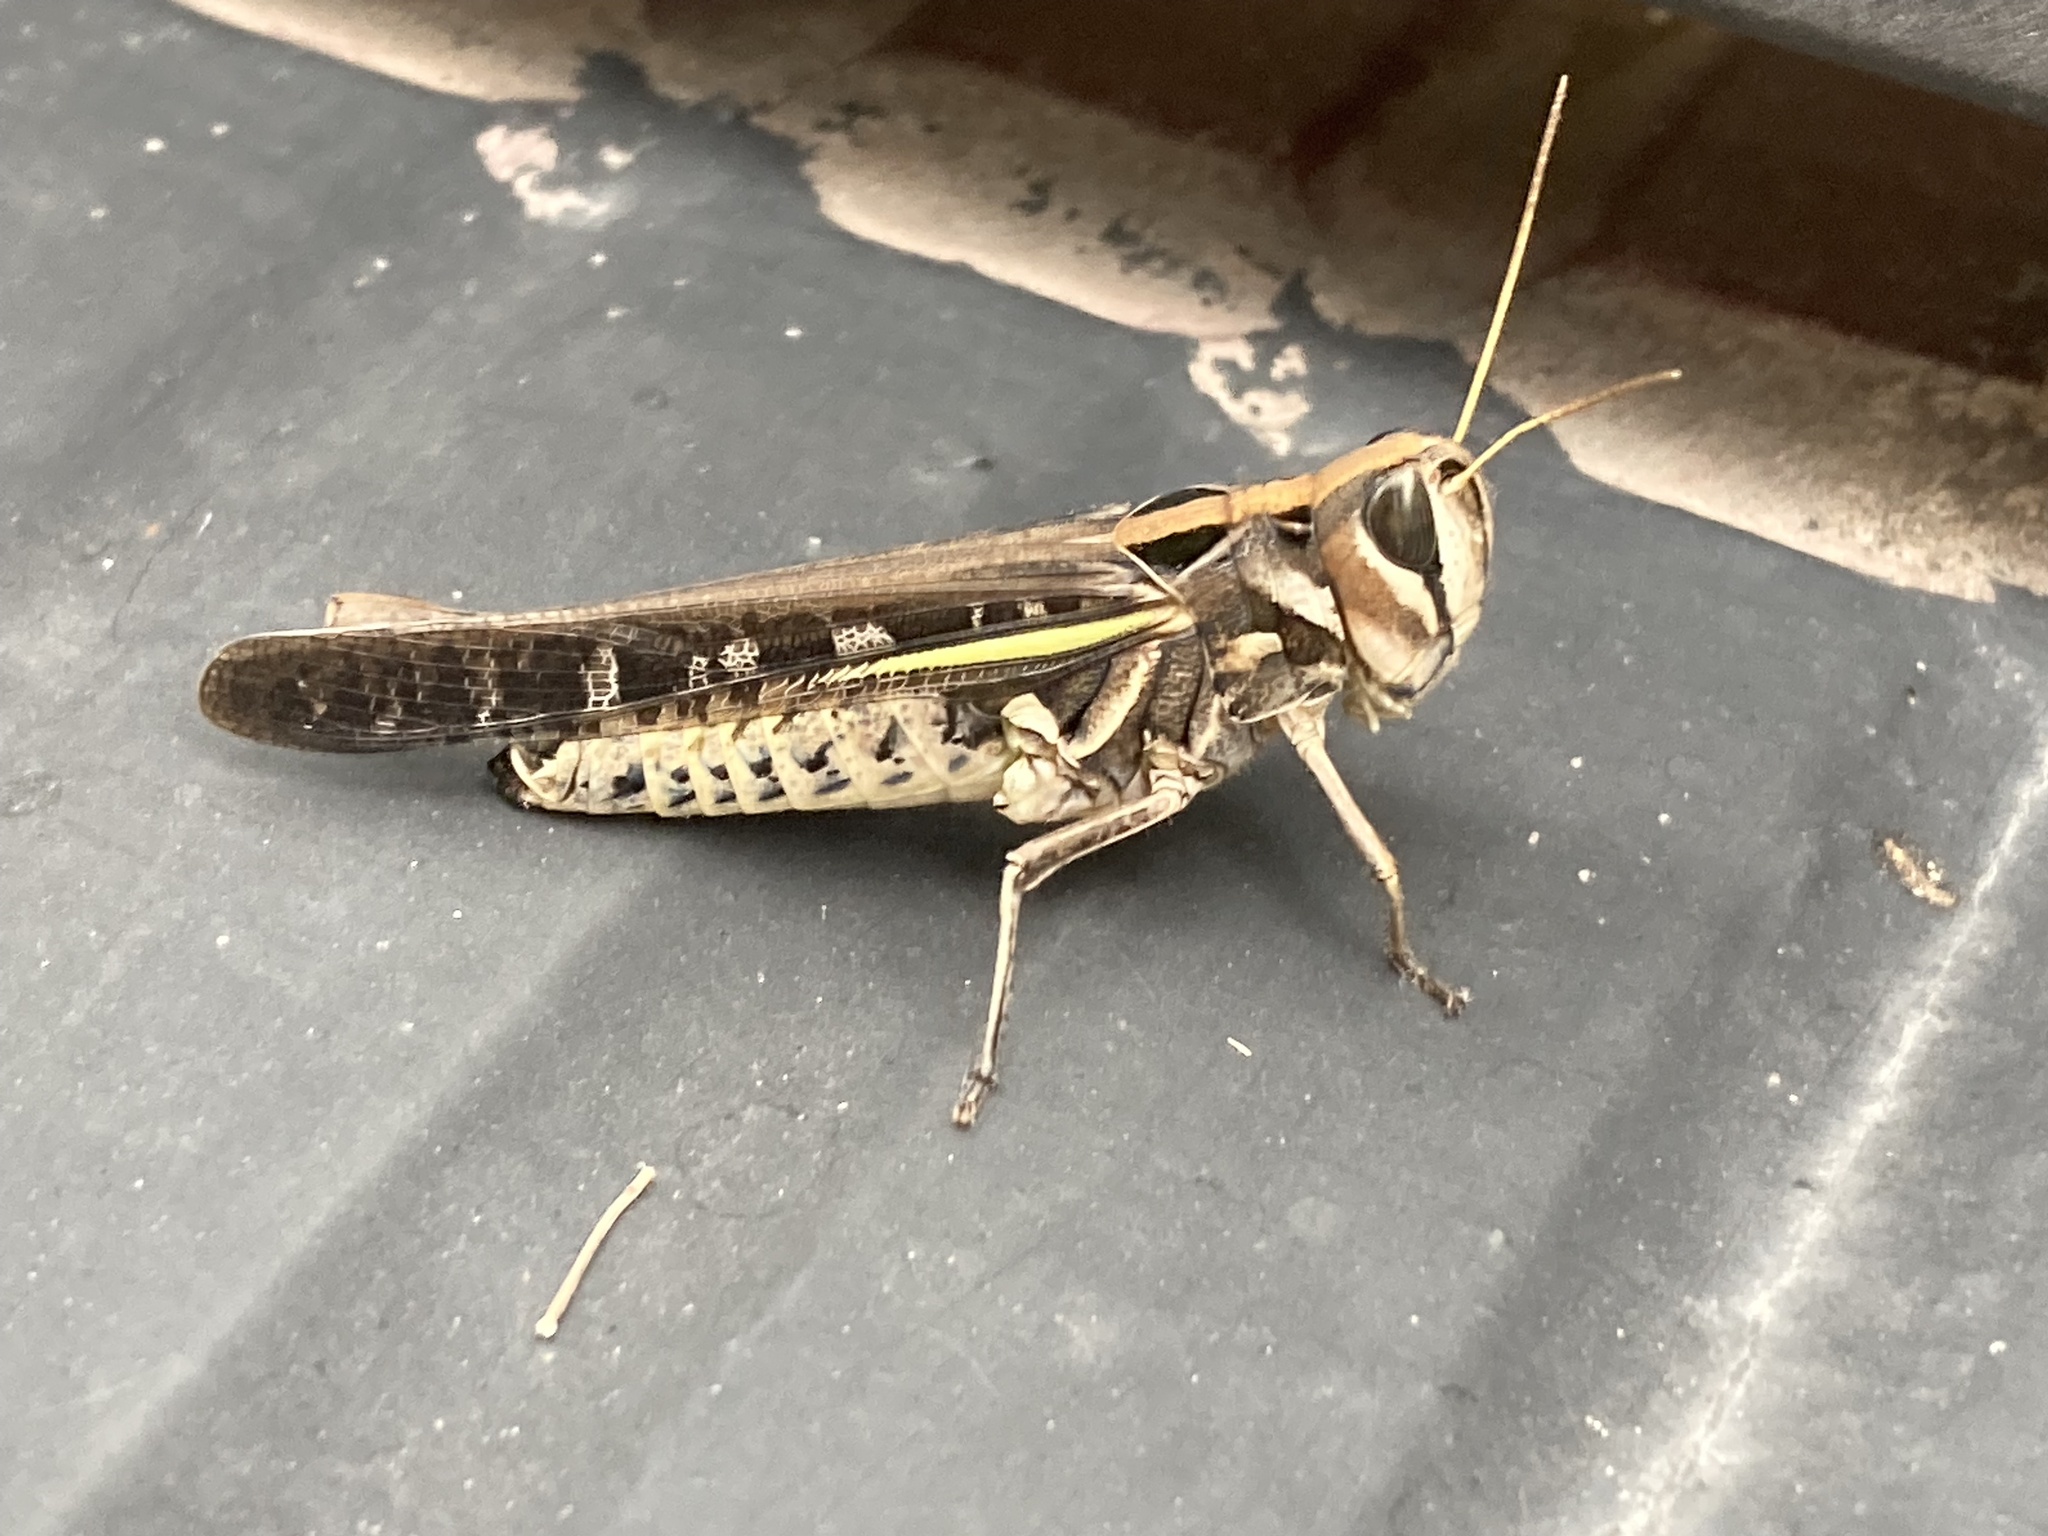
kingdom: Animalia
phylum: Arthropoda
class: Insecta
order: Orthoptera
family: Acrididae
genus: Rhammatocerus
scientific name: Rhammatocerus pictus
